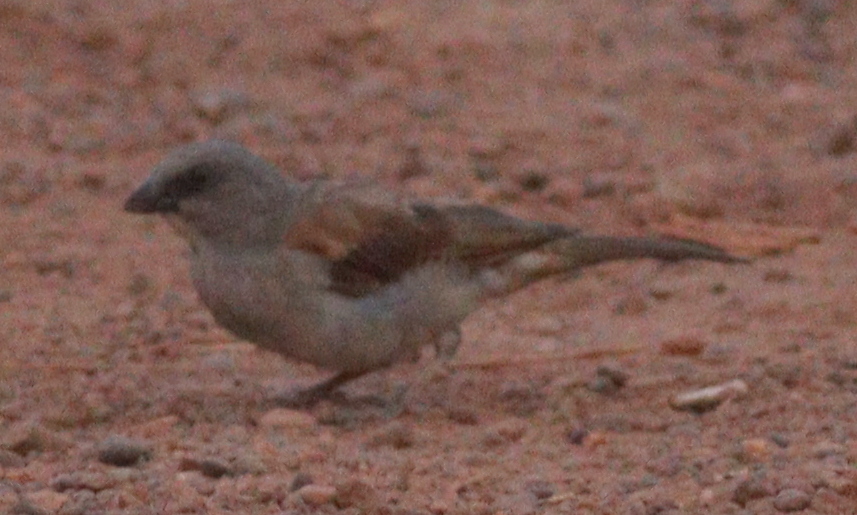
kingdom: Animalia
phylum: Chordata
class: Aves
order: Passeriformes
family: Passeridae
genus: Passer
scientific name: Passer griseus
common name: Northern grey-headed sparrow
